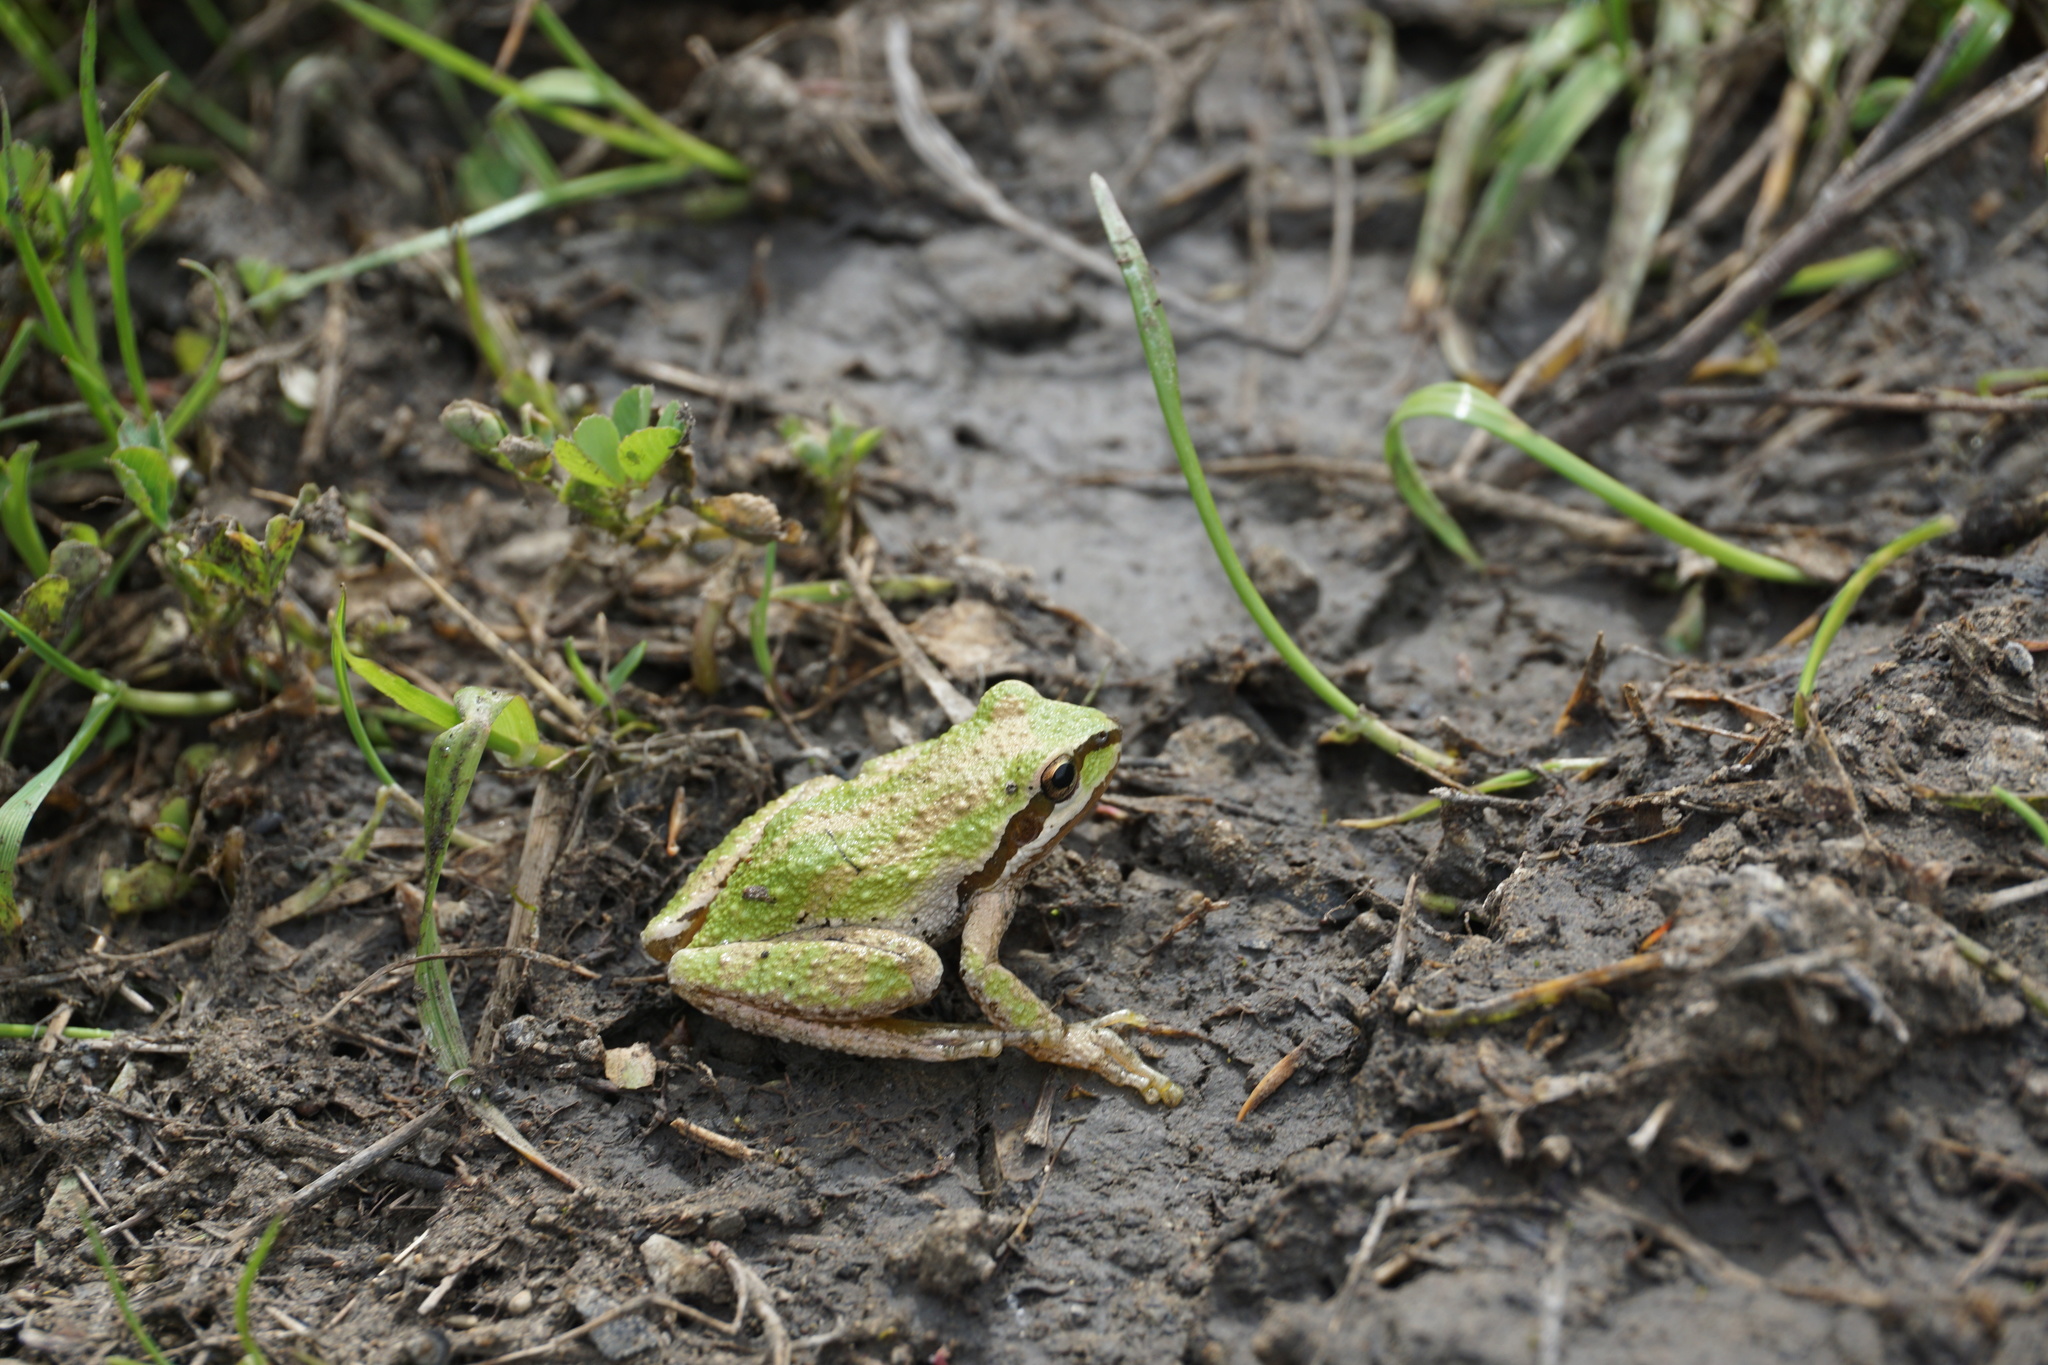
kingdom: Animalia
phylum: Chordata
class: Amphibia
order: Anura
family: Hylidae
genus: Pseudacris
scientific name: Pseudacris regilla
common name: Pacific chorus frog
